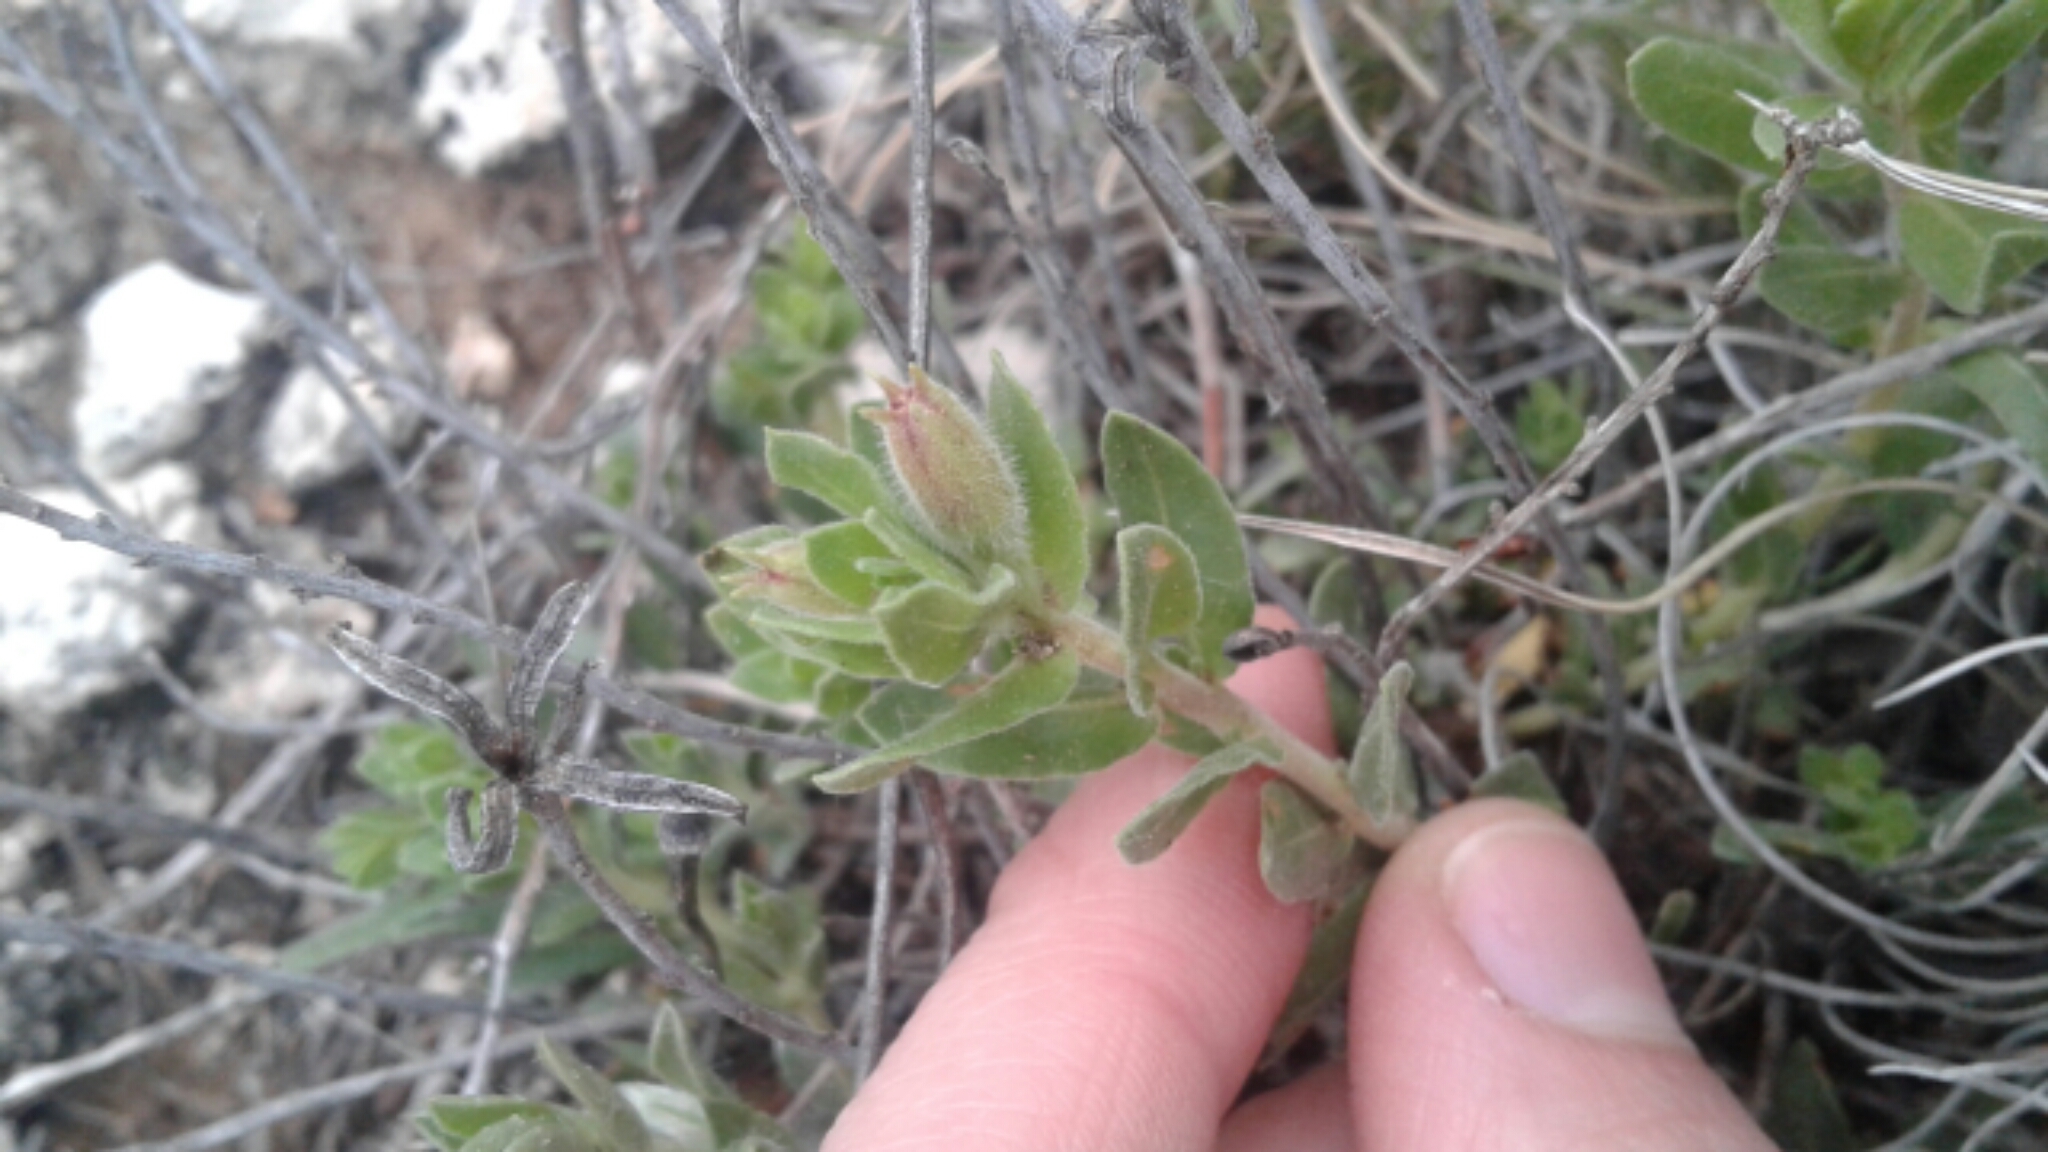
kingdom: Plantae
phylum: Tracheophyta
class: Magnoliopsida
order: Myrtales
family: Onagraceae
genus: Oenothera
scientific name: Oenothera hartwegii
